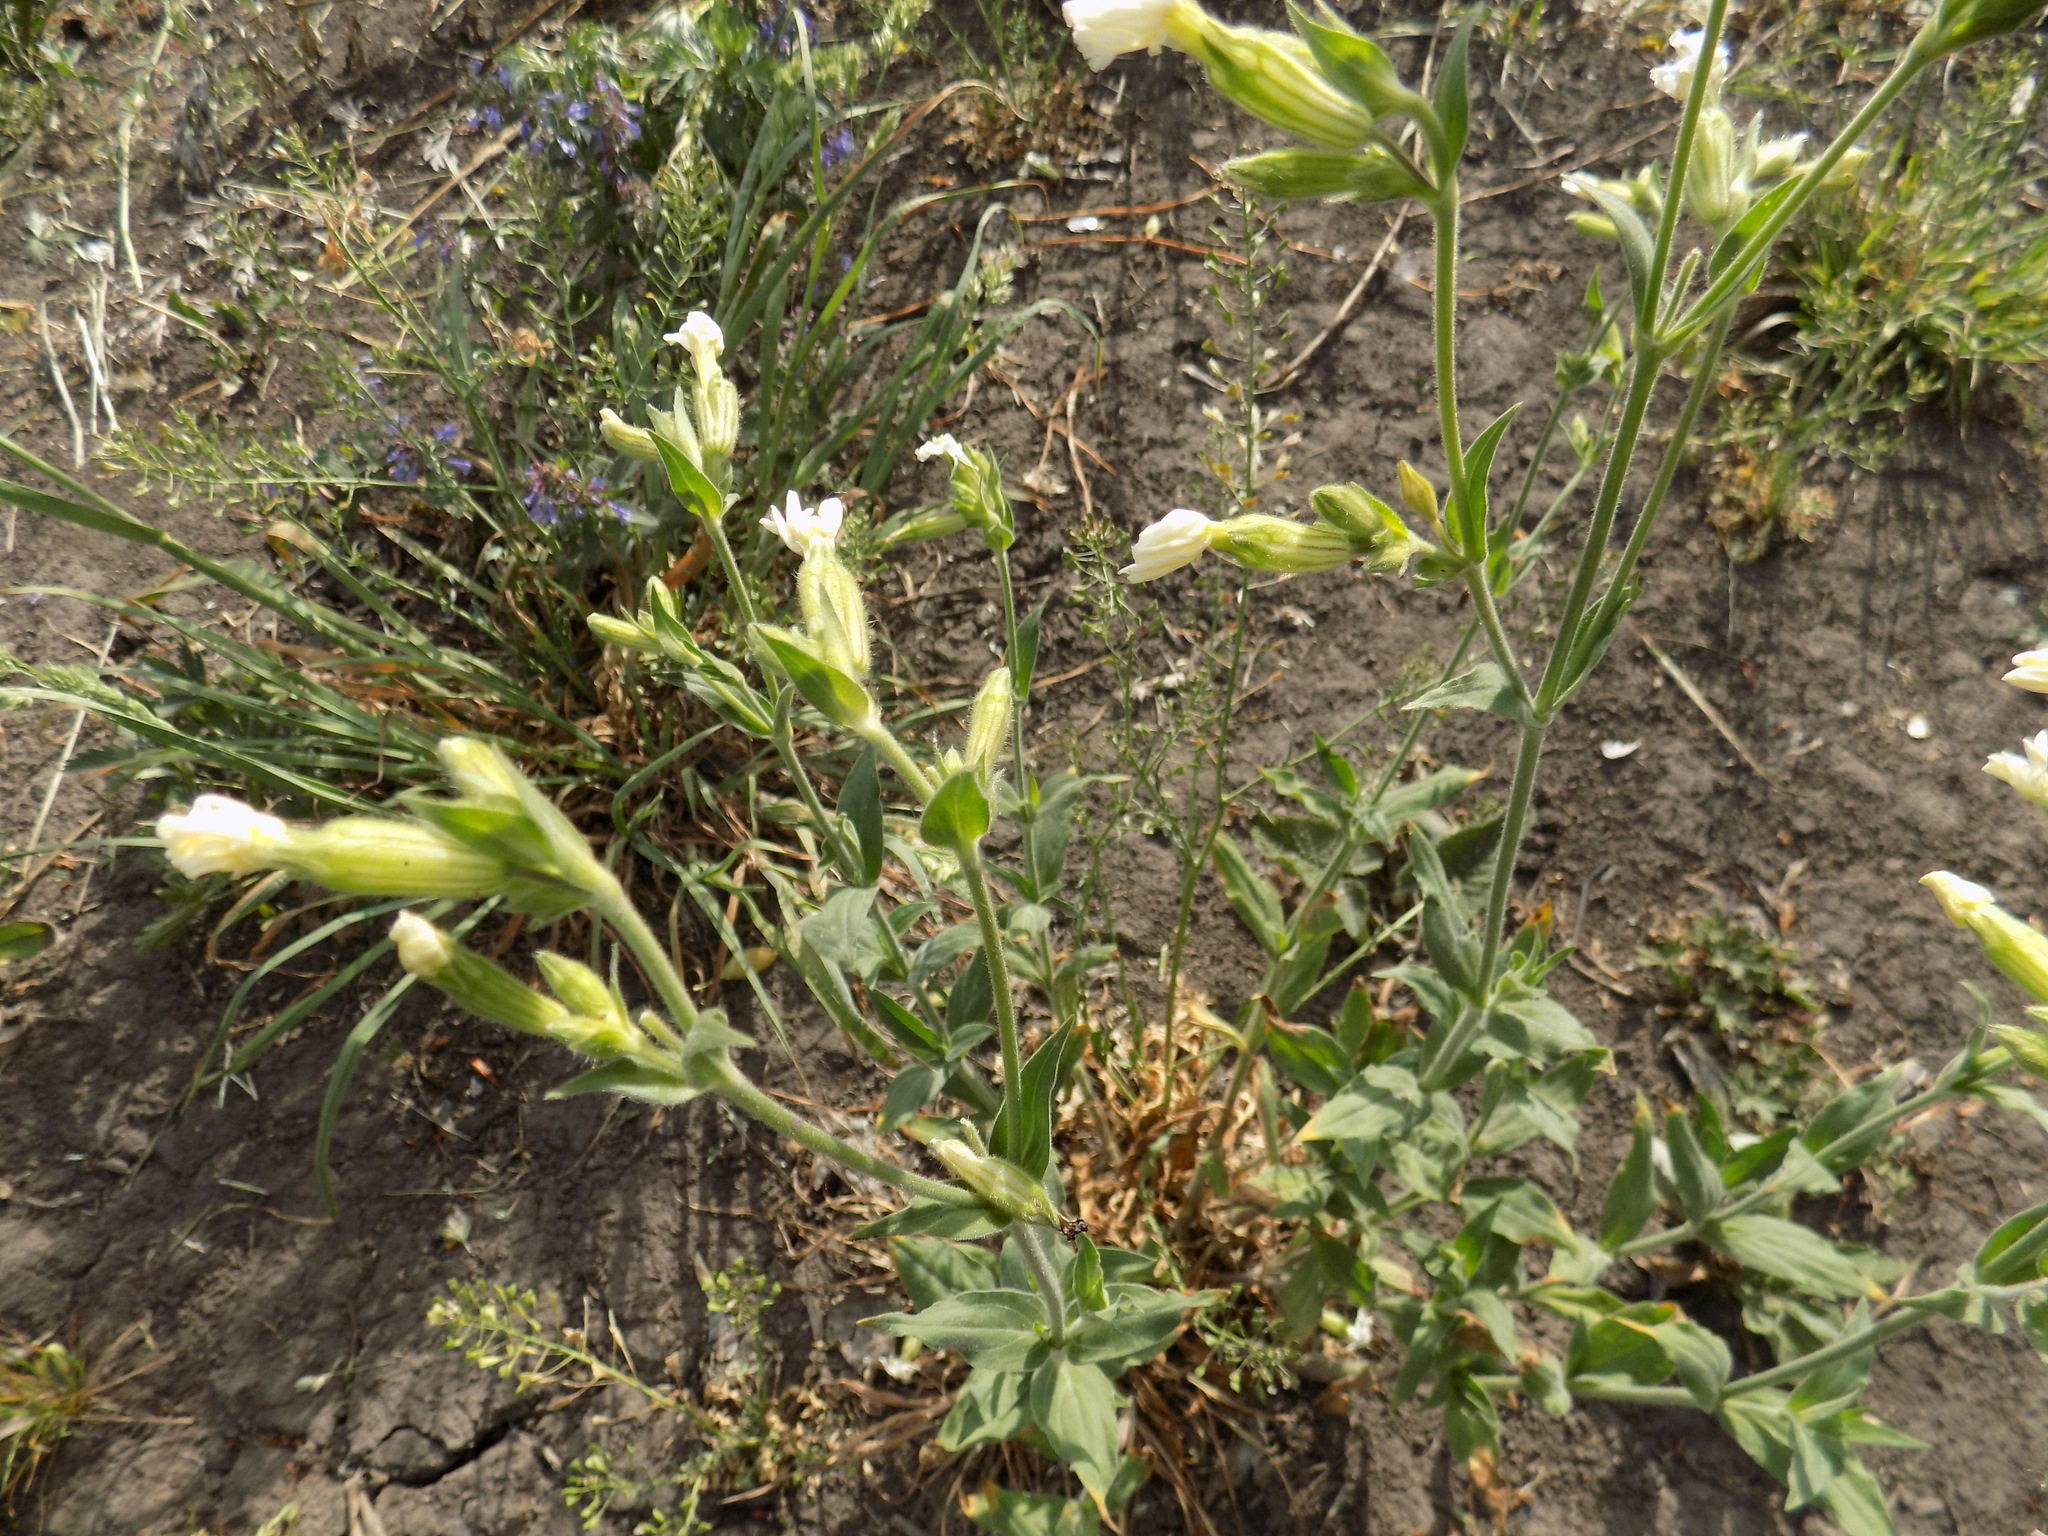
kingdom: Plantae
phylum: Tracheophyta
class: Magnoliopsida
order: Caryophyllales
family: Caryophyllaceae
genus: Silene
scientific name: Silene latifolia
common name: White campion
